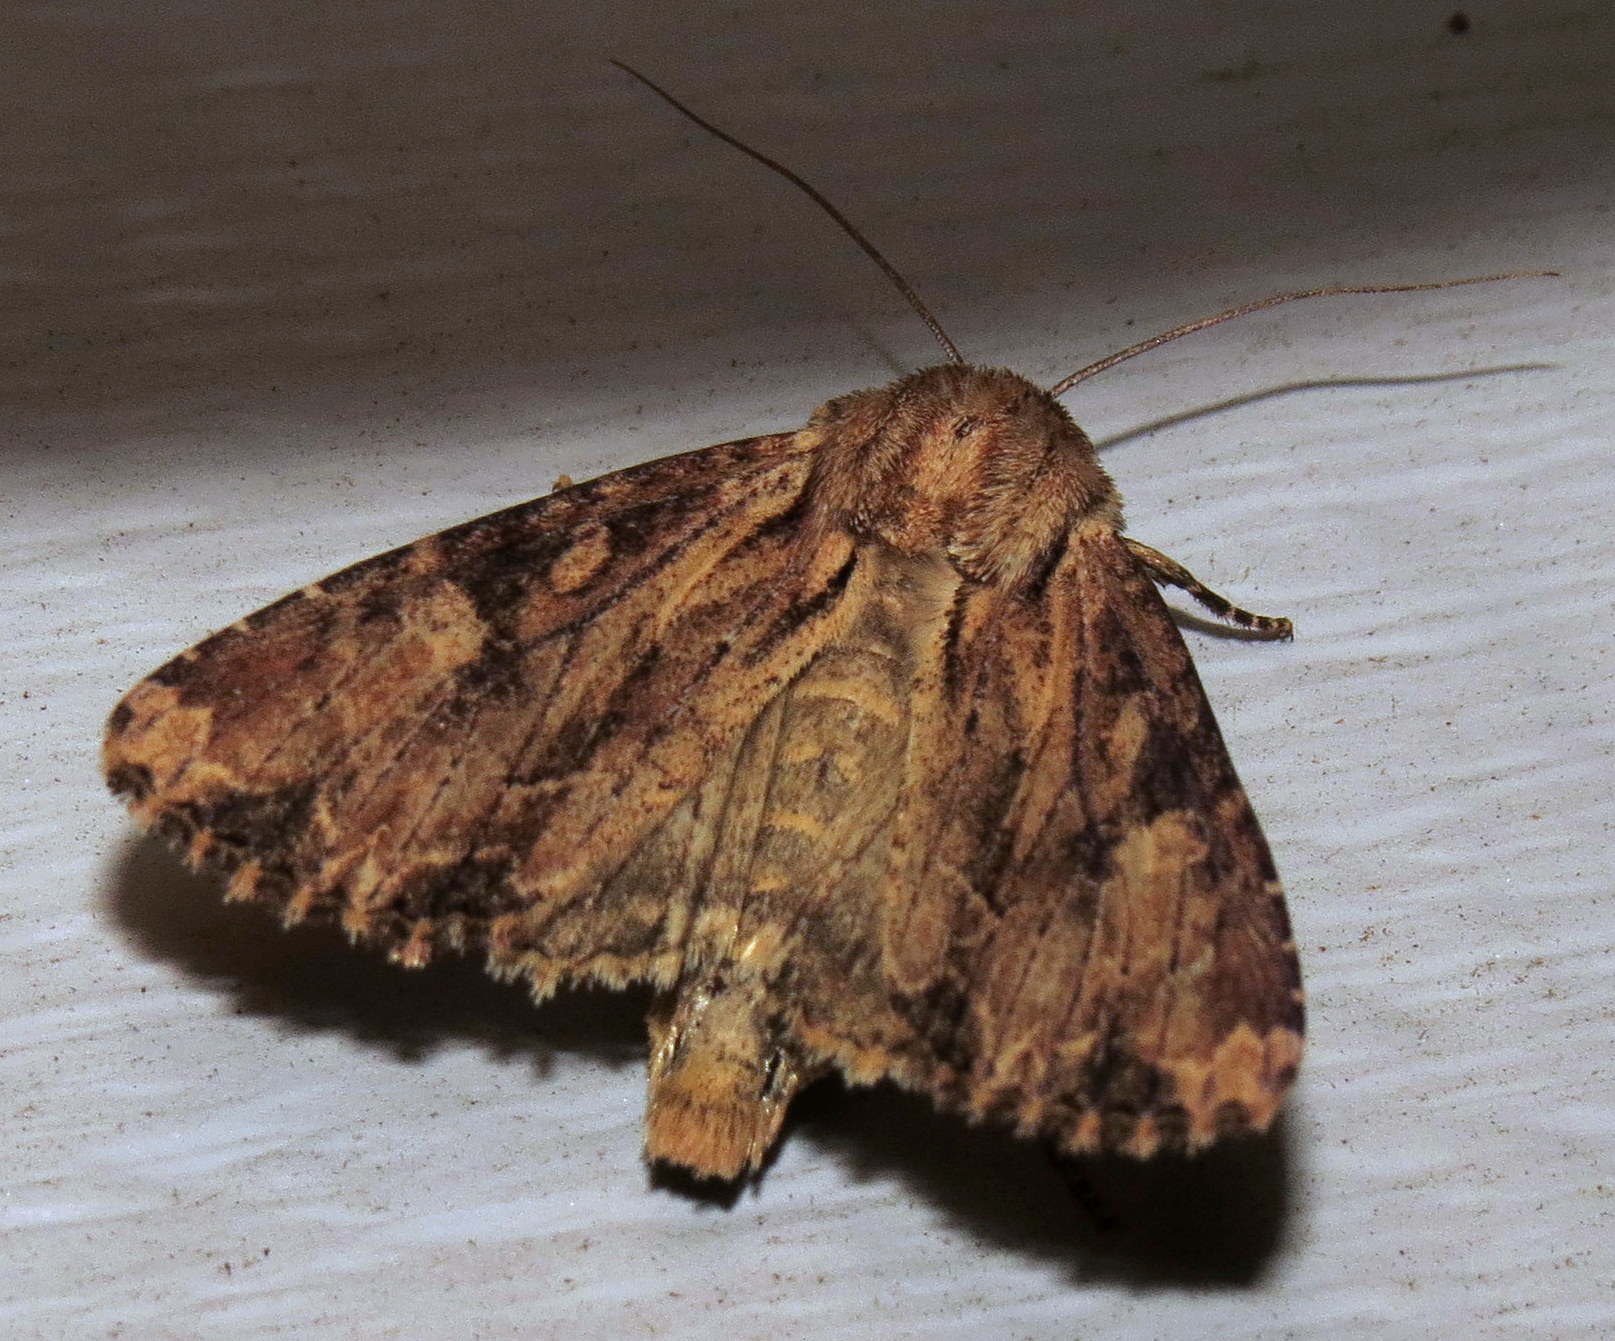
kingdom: Animalia
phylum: Arthropoda
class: Insecta
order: Lepidoptera
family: Noctuidae
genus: Apamea
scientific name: Apamea lignicolora
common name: Wood-colored apamea moth
